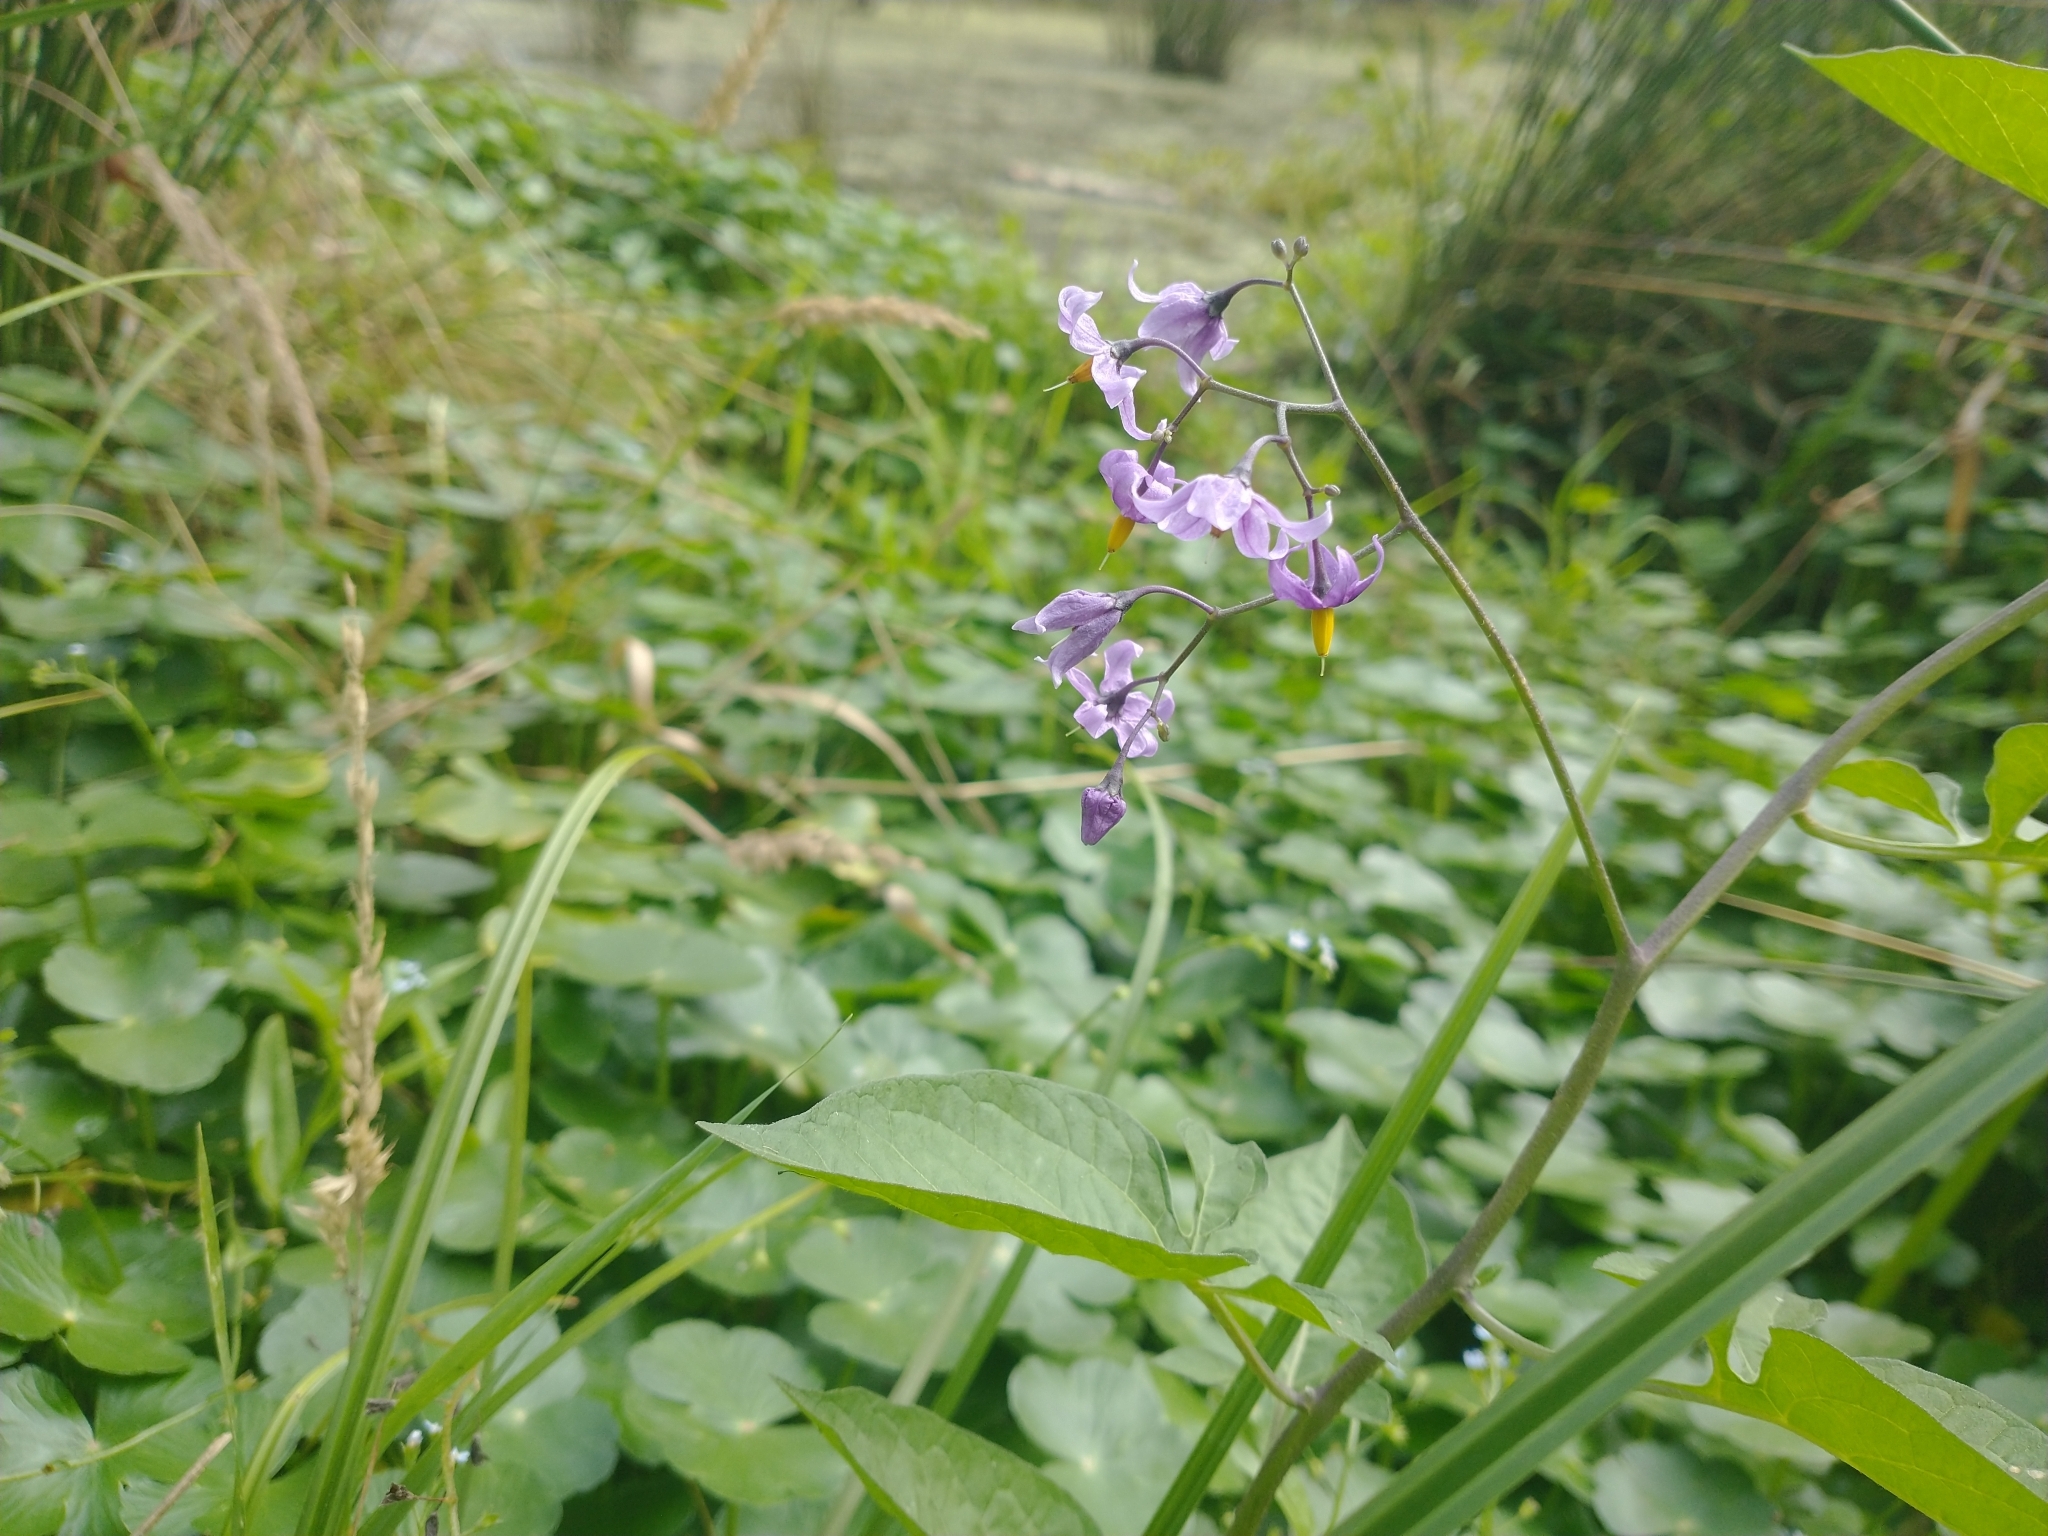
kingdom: Plantae
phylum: Tracheophyta
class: Magnoliopsida
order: Solanales
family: Solanaceae
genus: Solanum
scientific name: Solanum dulcamara
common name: Climbing nightshade
